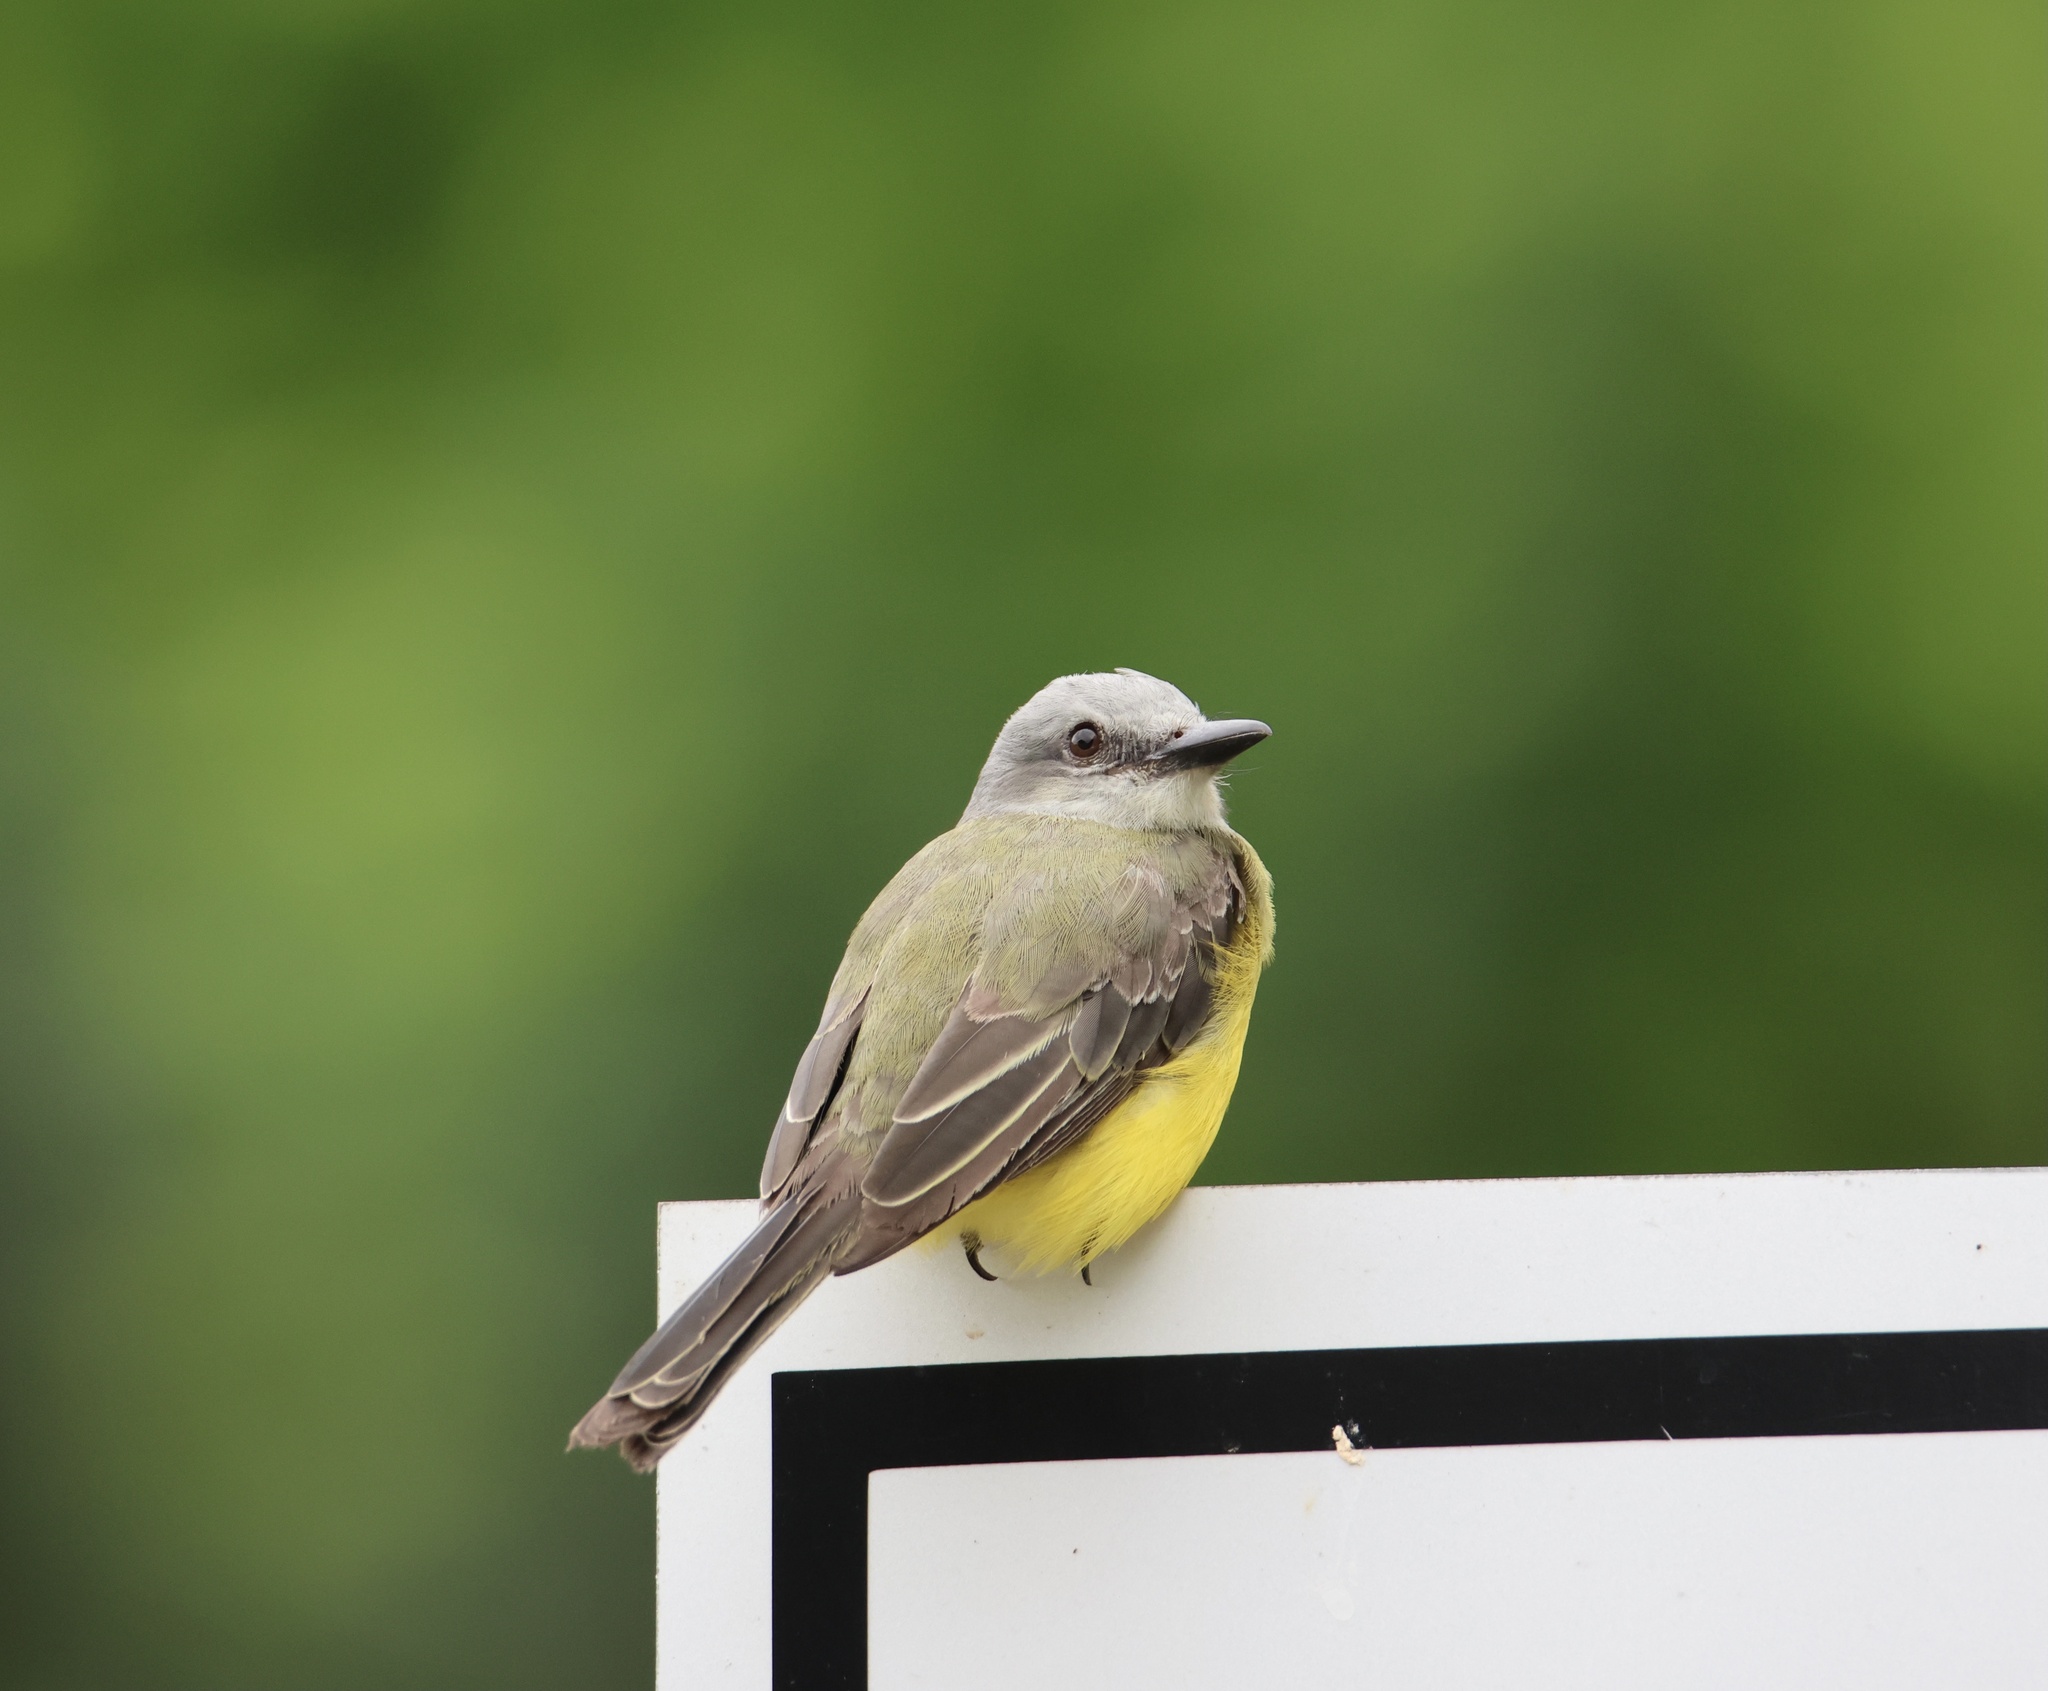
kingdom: Animalia
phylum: Chordata
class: Aves
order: Passeriformes
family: Tyrannidae
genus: Tyrannus
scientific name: Tyrannus melancholicus
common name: Tropical kingbird
